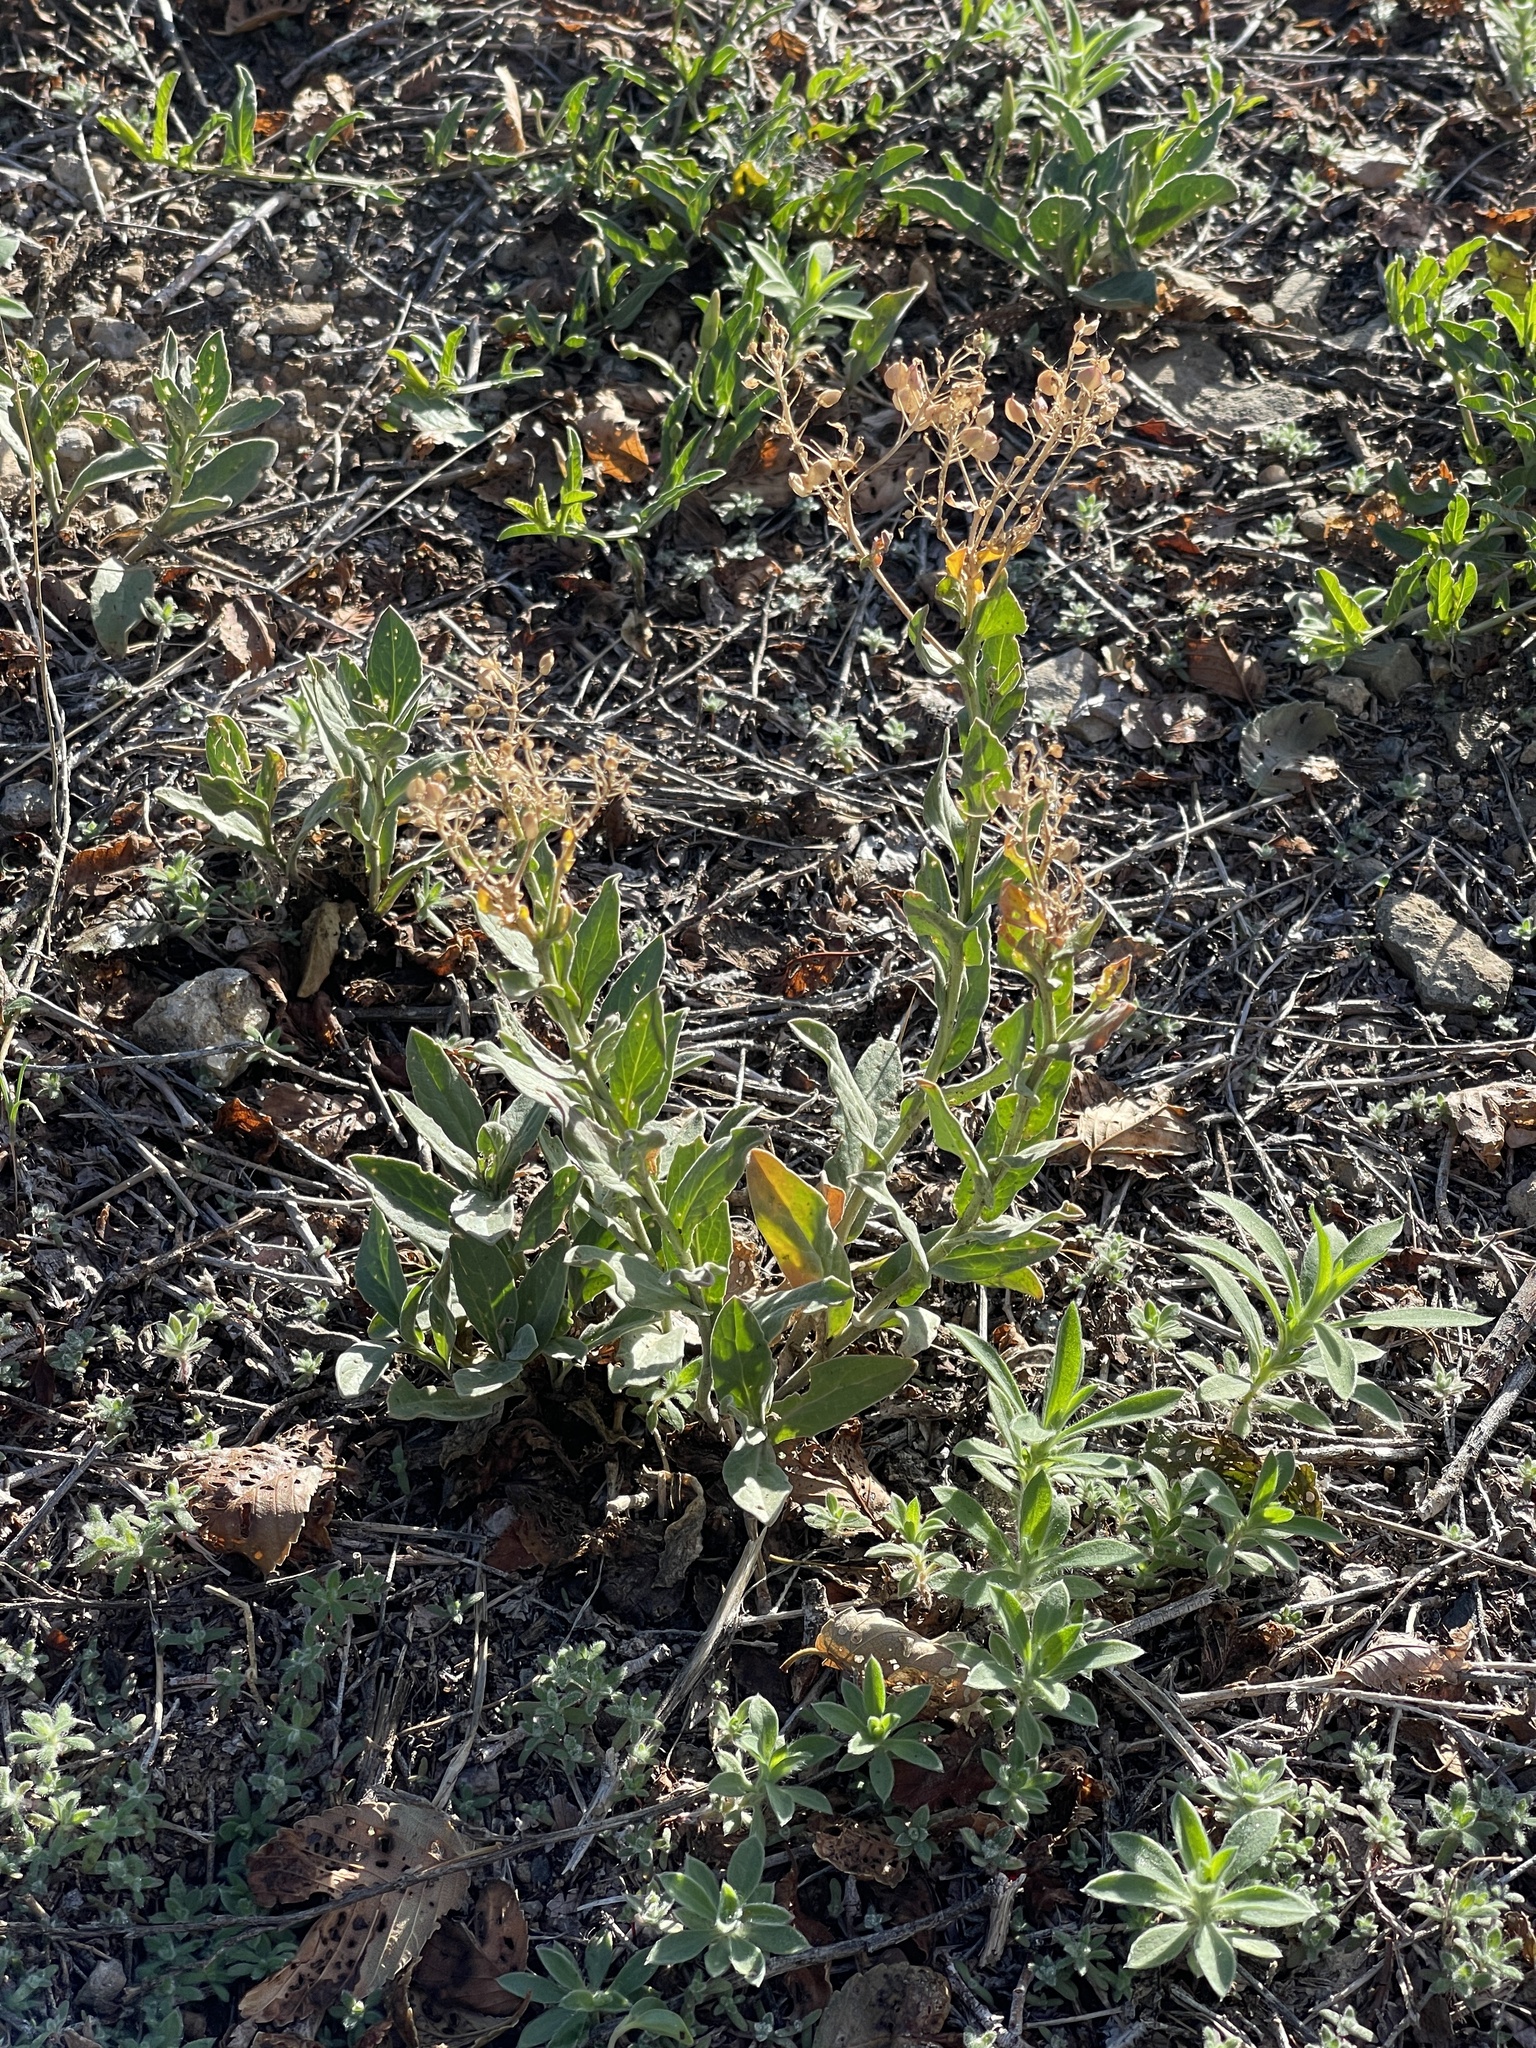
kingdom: Plantae
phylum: Tracheophyta
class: Magnoliopsida
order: Brassicales
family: Brassicaceae
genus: Lepidium
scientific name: Lepidium draba
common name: Hoary cress
